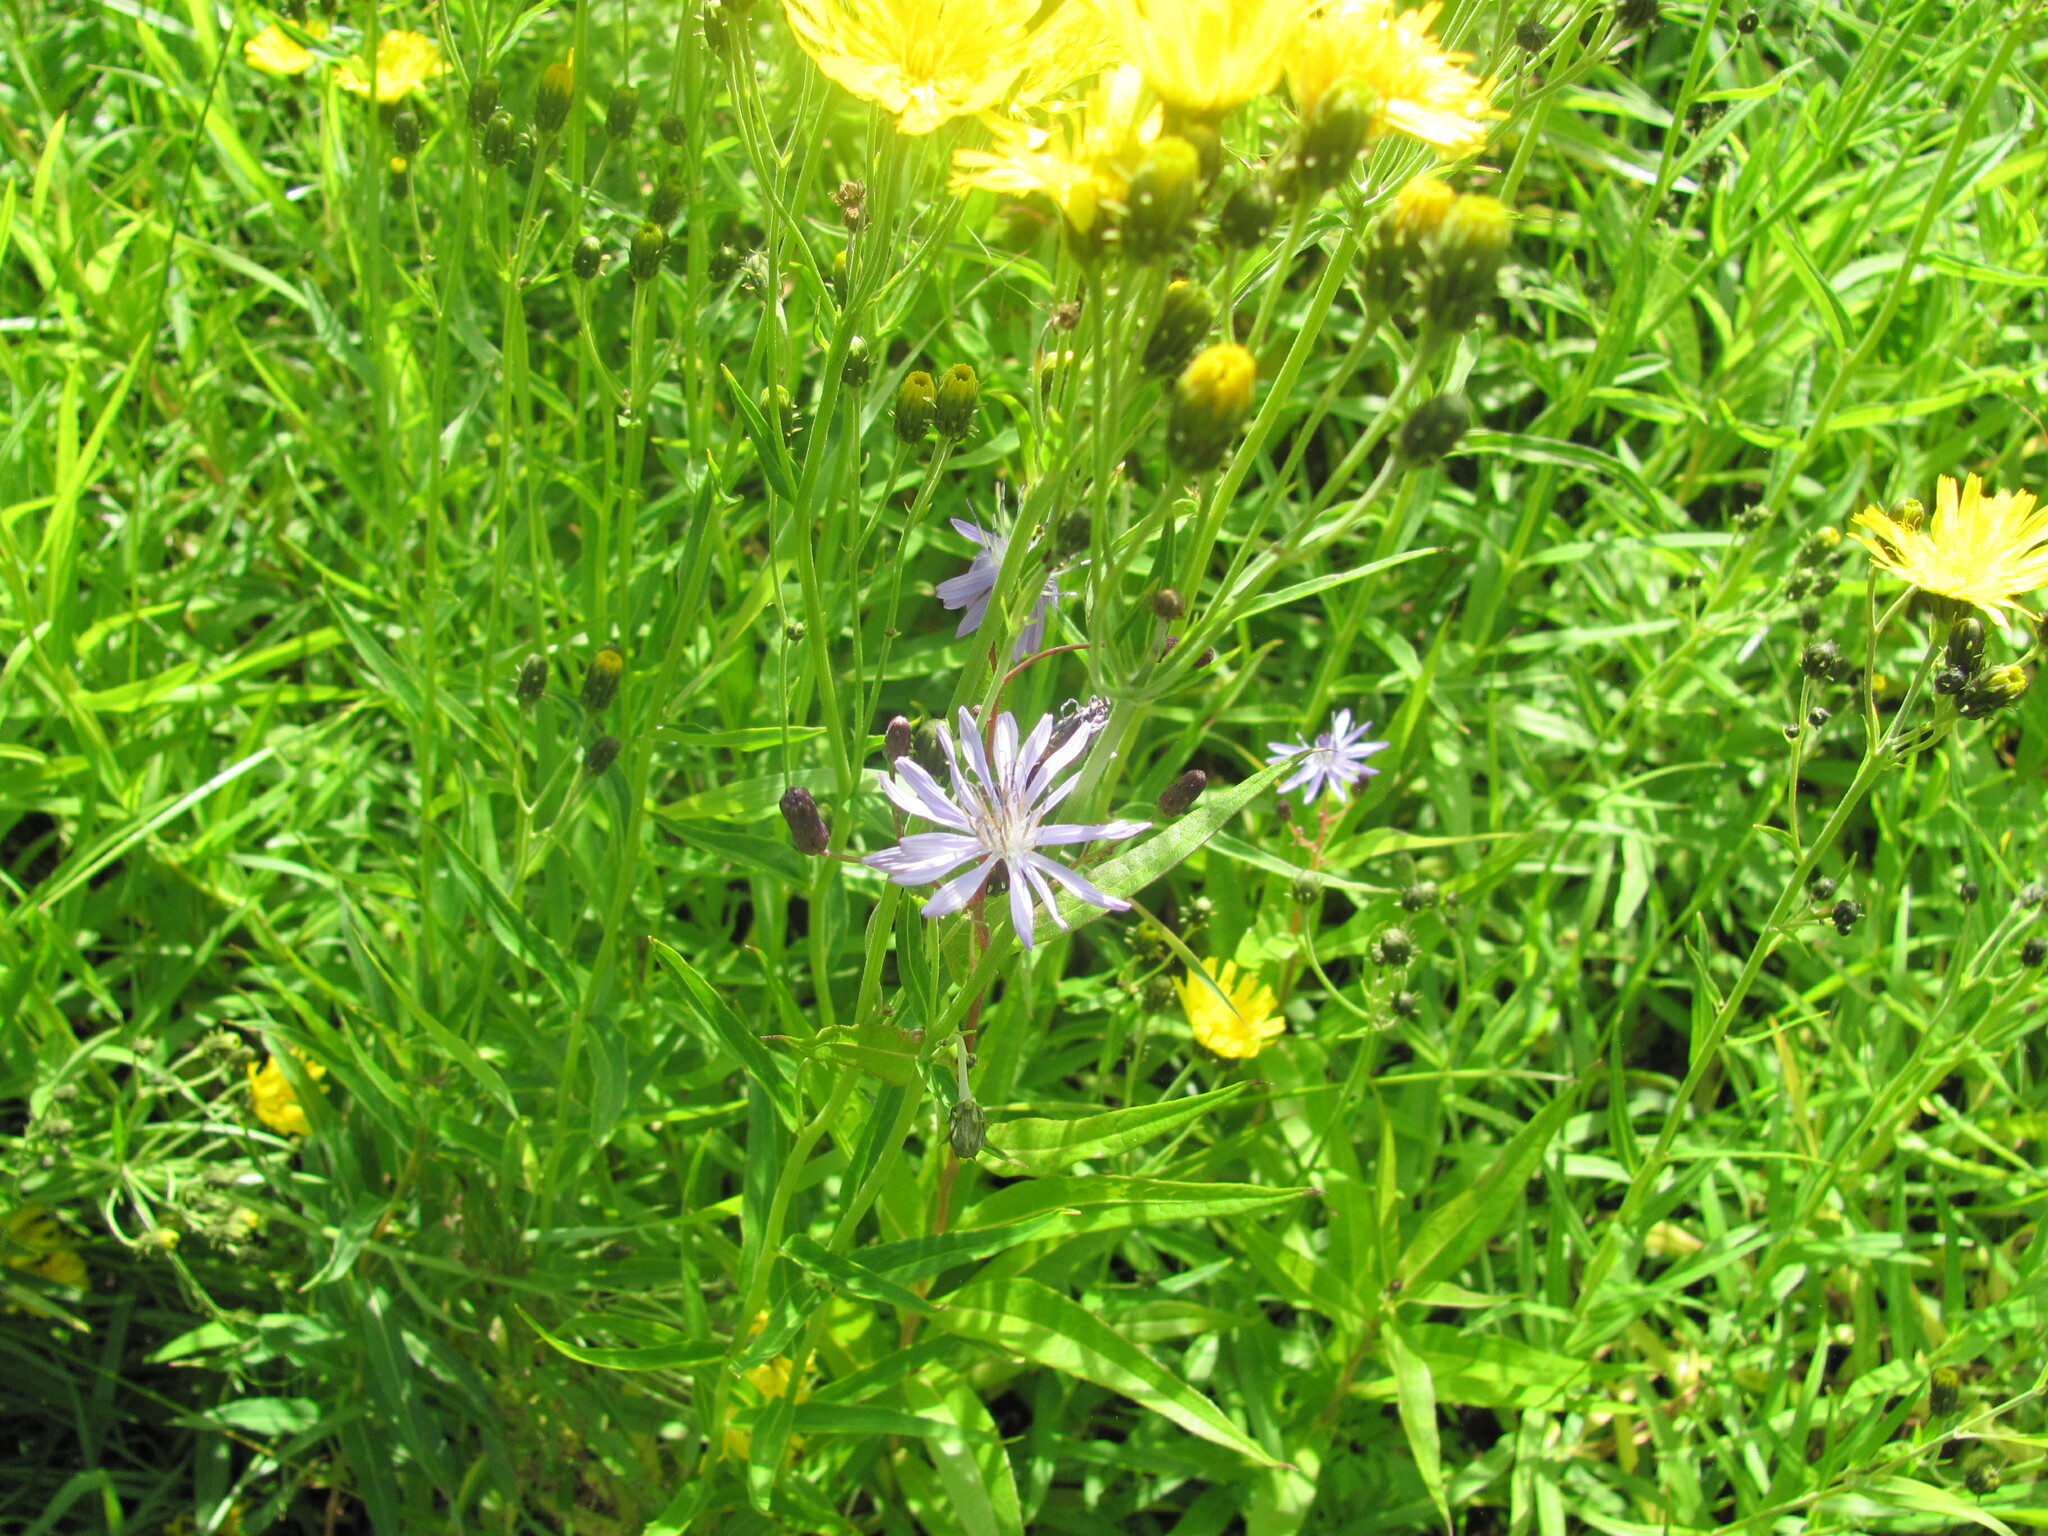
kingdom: Plantae
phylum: Tracheophyta
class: Magnoliopsida
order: Asterales
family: Asteraceae
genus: Lactuca
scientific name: Lactuca sibirica
